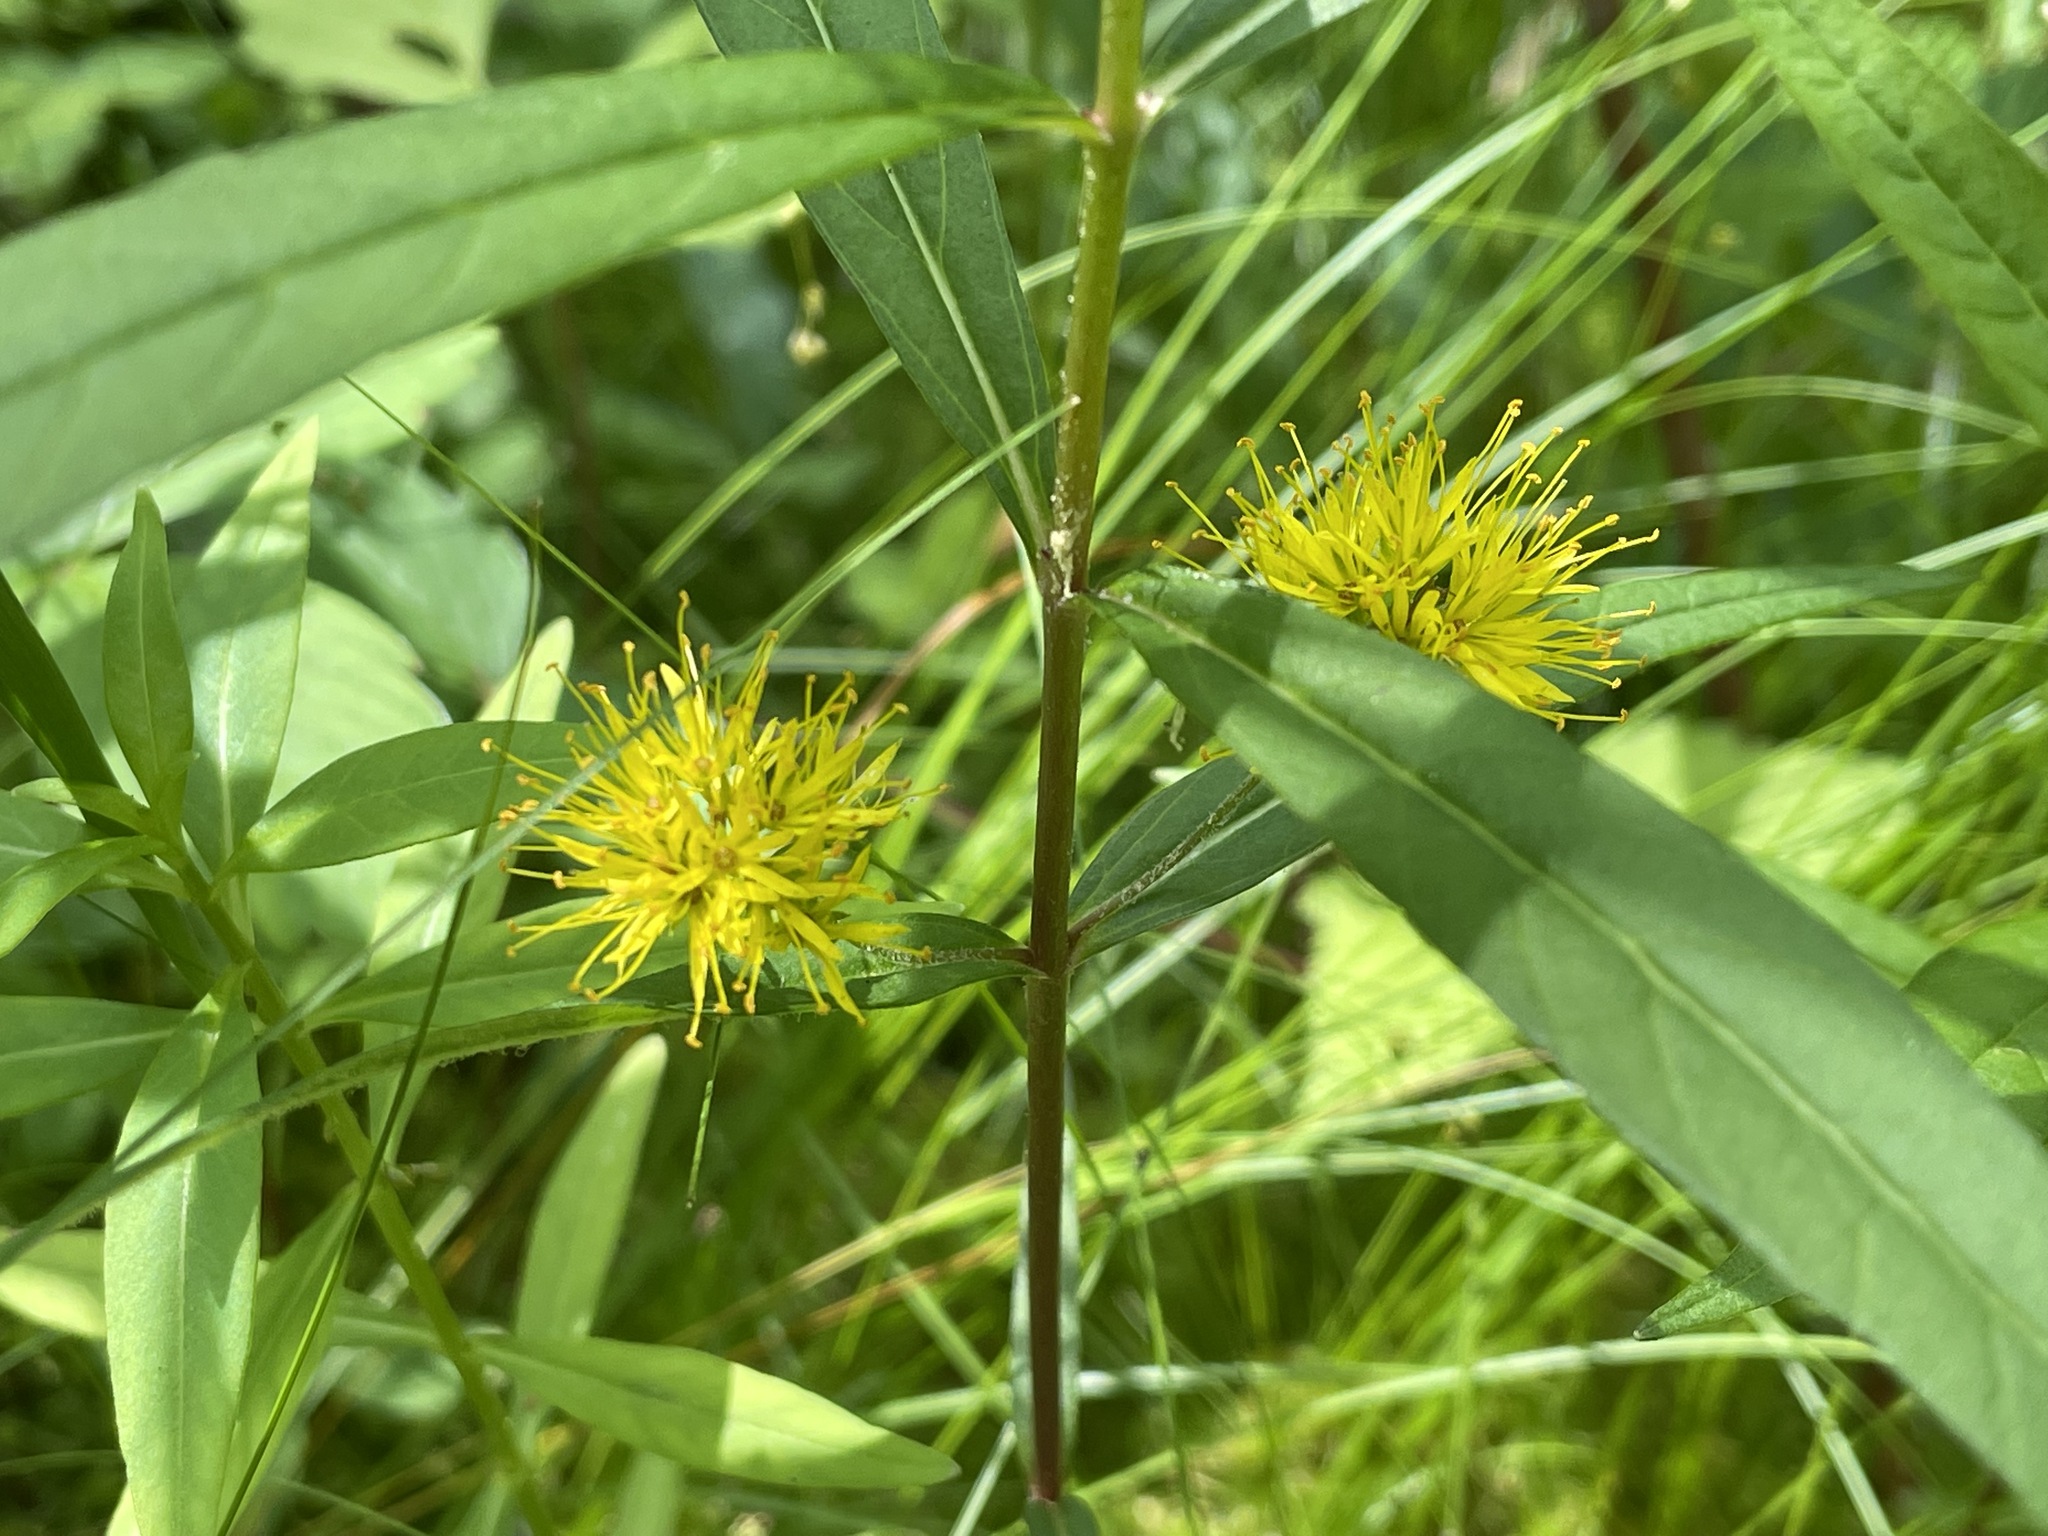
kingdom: Plantae
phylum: Tracheophyta
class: Magnoliopsida
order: Ericales
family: Primulaceae
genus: Lysimachia
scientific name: Lysimachia thyrsiflora
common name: Tufted loosestrife
